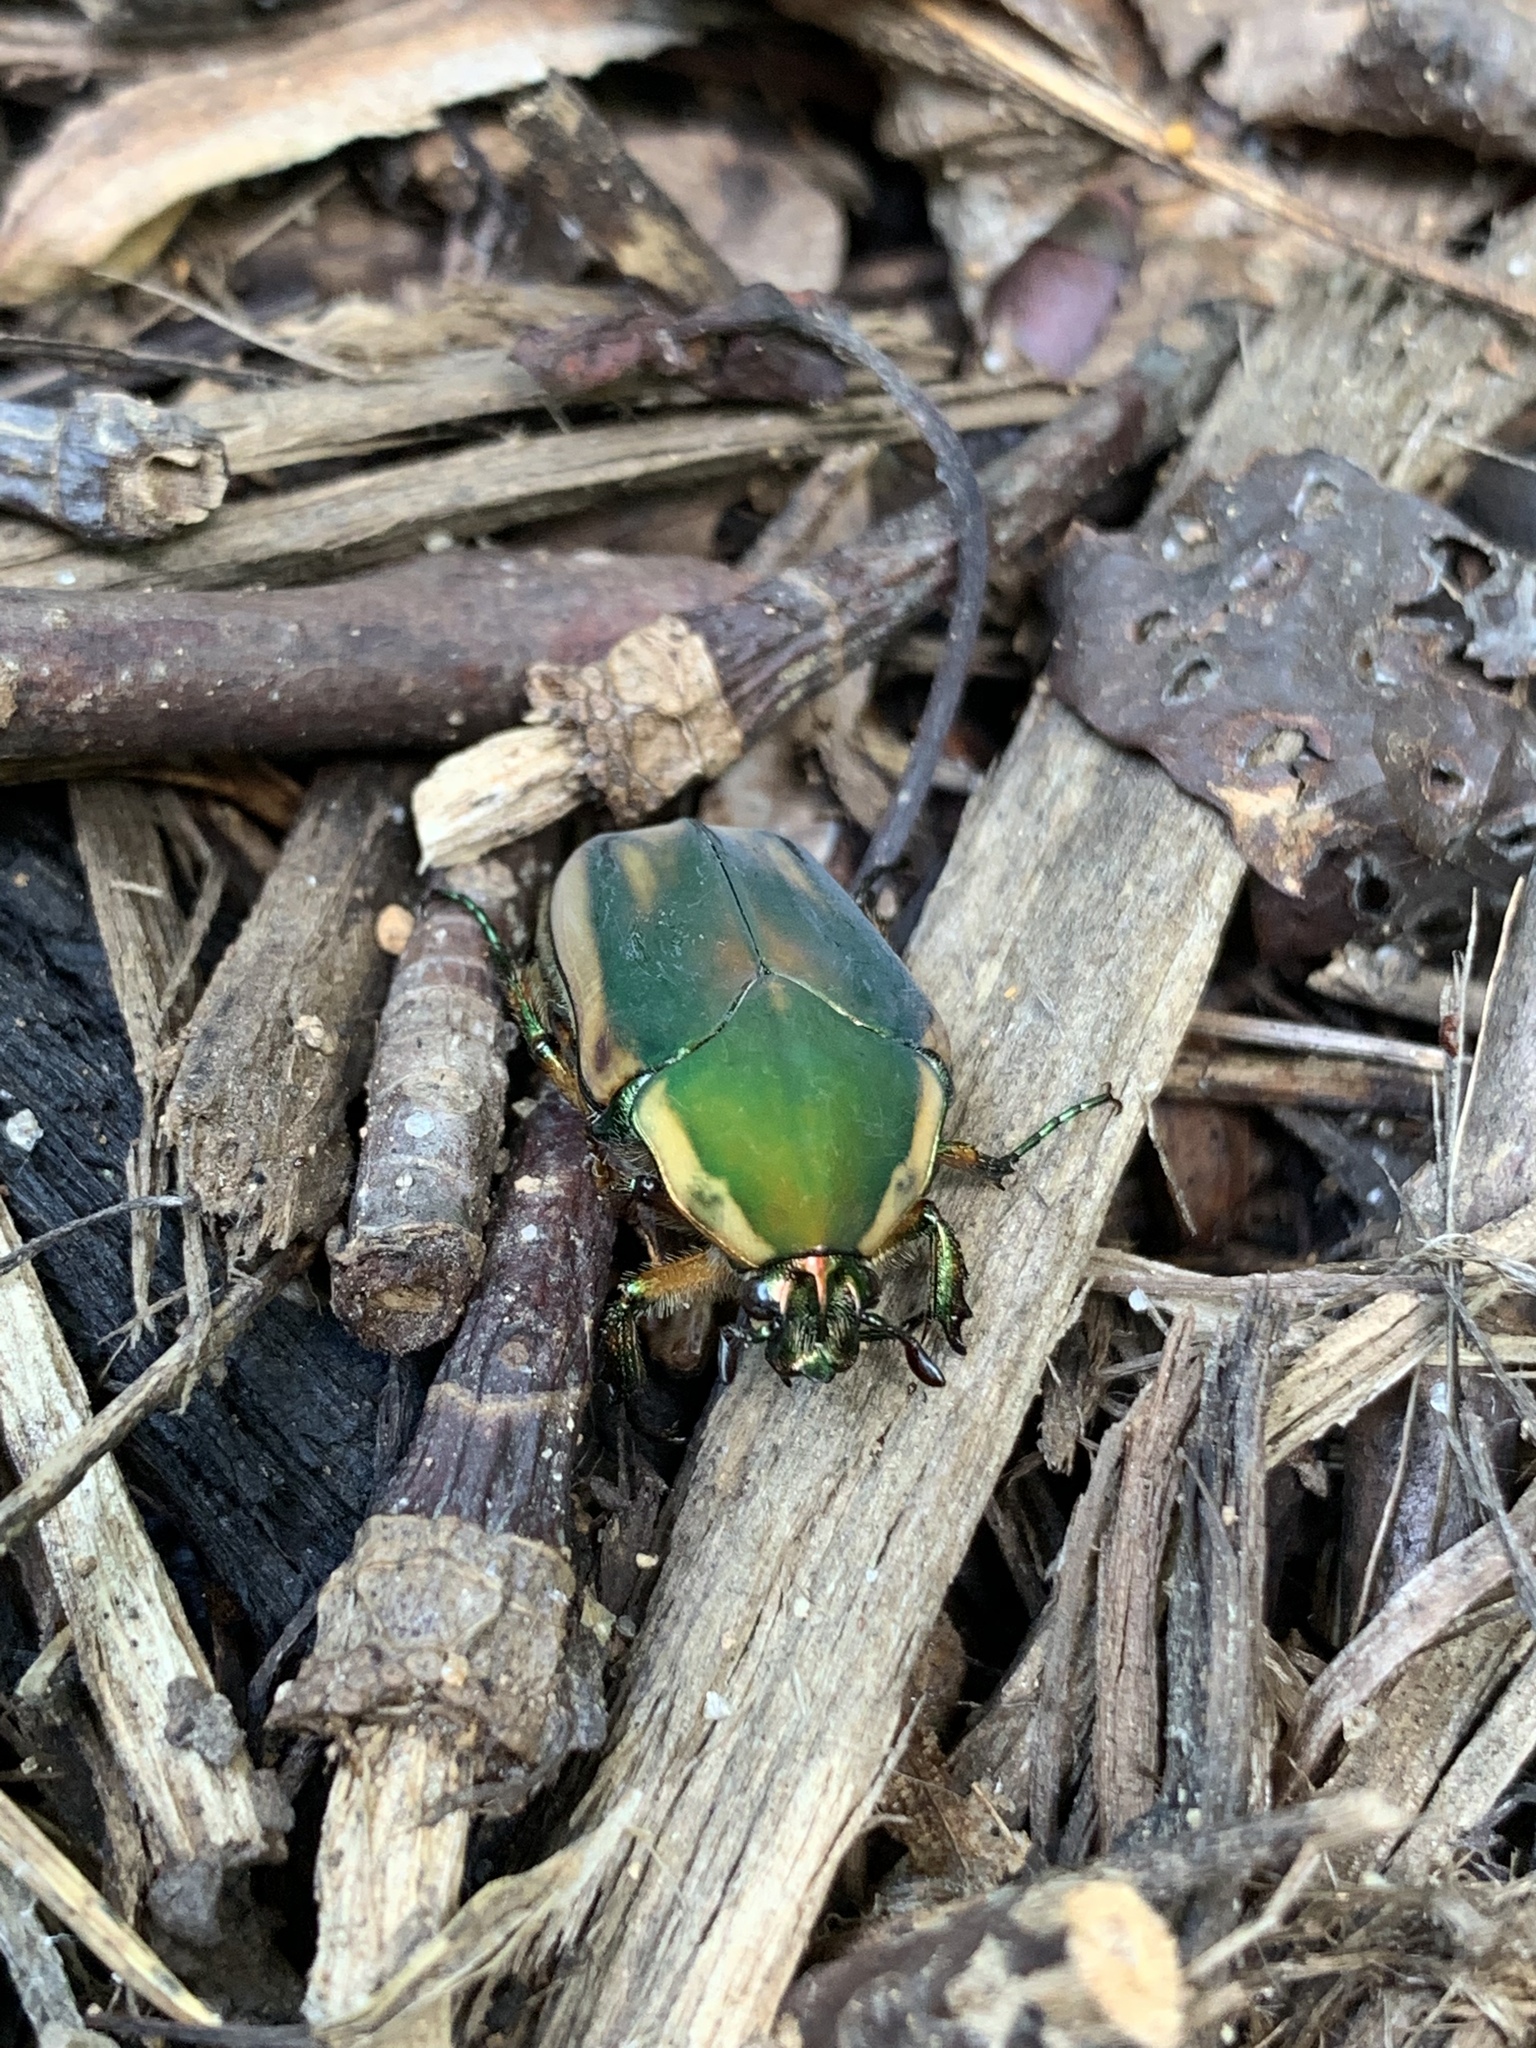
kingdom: Animalia
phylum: Arthropoda
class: Insecta
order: Coleoptera
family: Scarabaeidae
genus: Cotinis
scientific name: Cotinis nitida
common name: Common green june beetle
